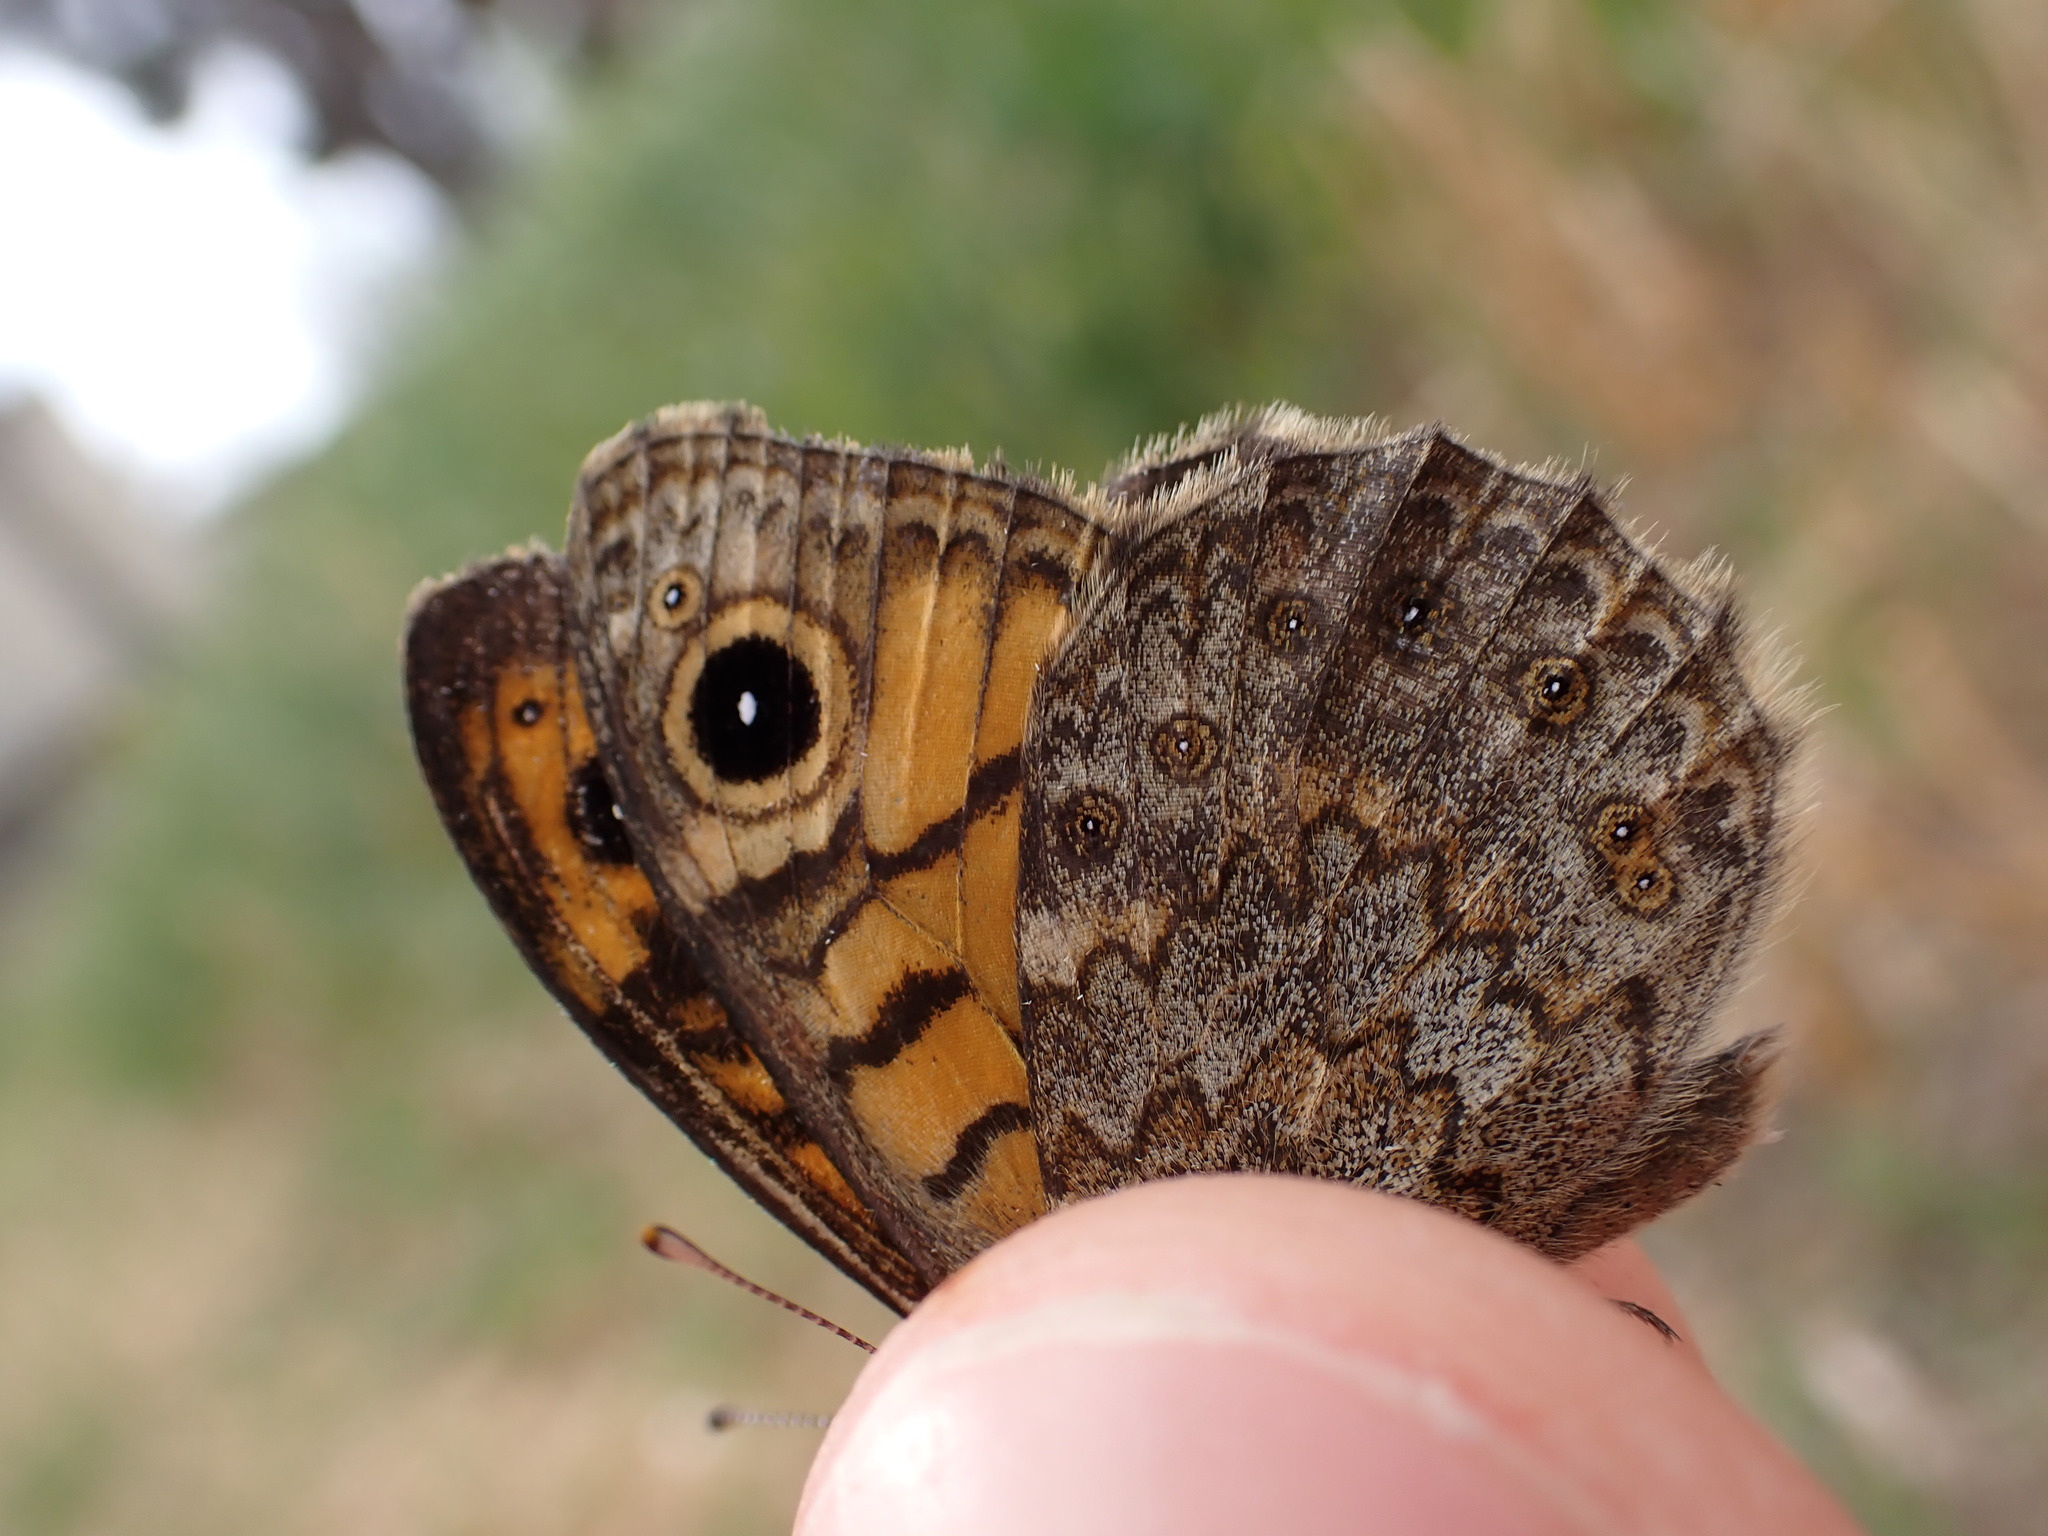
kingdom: Animalia
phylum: Arthropoda
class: Insecta
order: Lepidoptera
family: Nymphalidae
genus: Pararge
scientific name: Pararge Lasiommata megera
